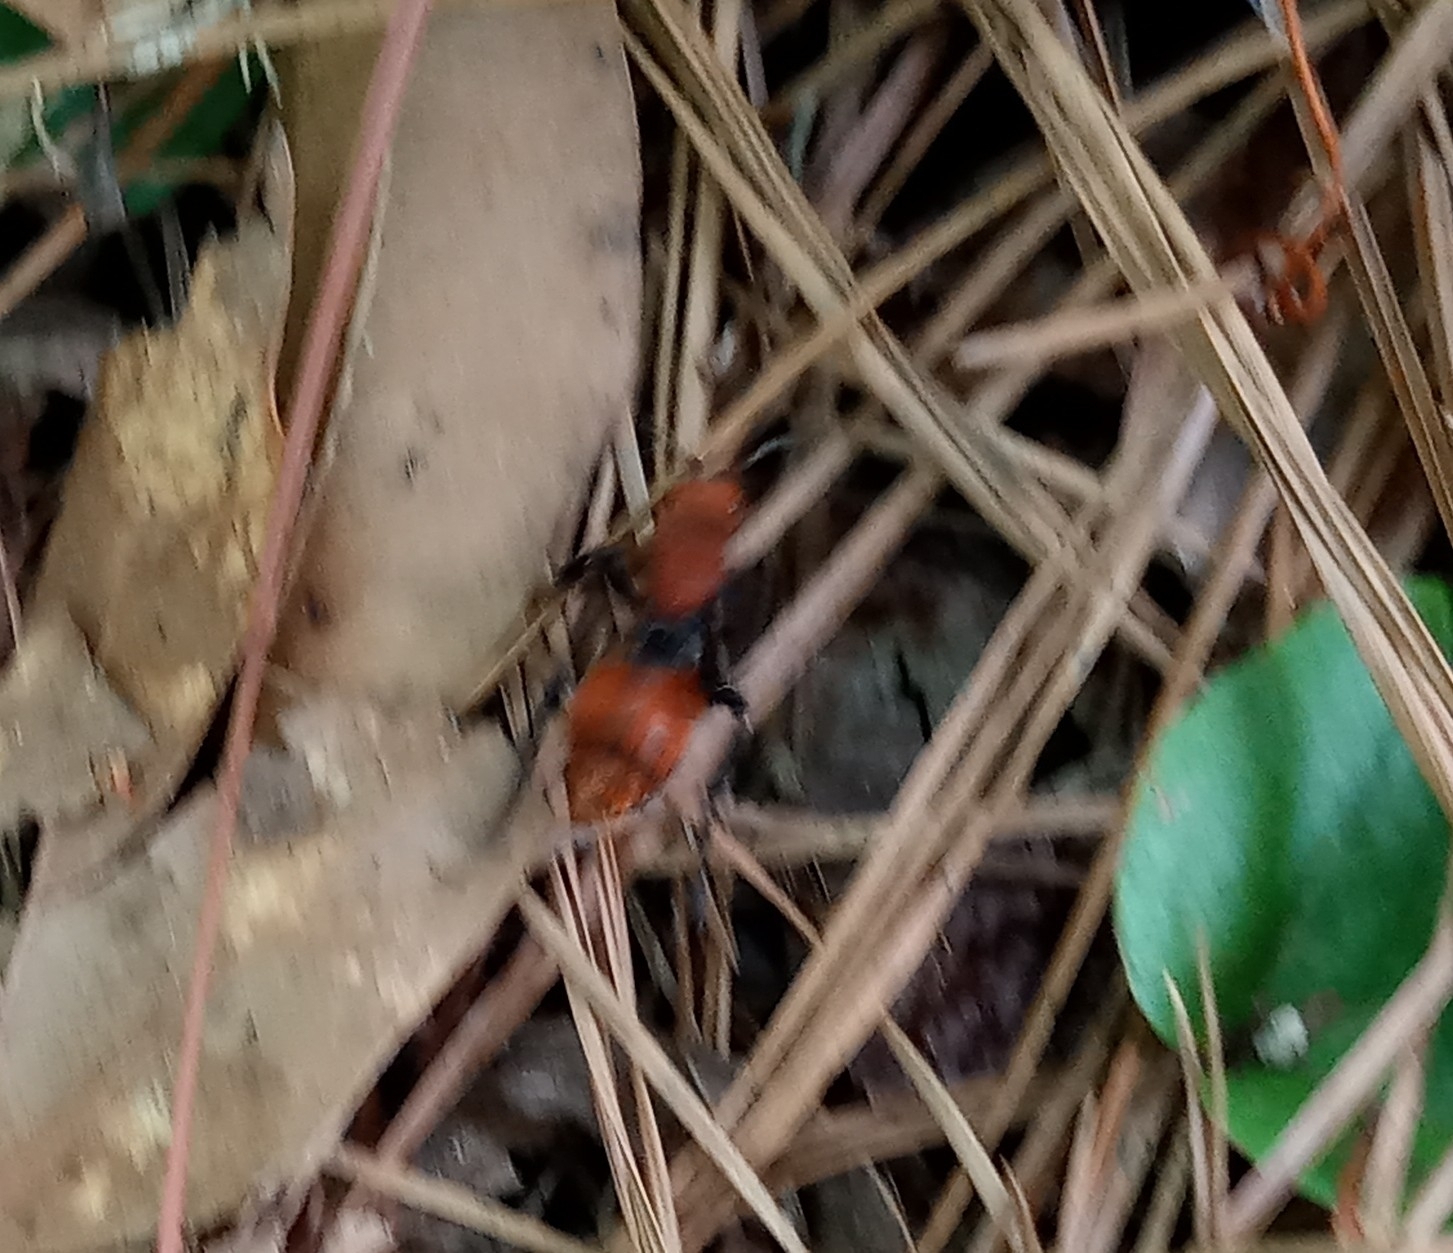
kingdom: Animalia
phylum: Arthropoda
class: Insecta
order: Hymenoptera
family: Mutillidae
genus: Dasymutilla
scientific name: Dasymutilla occidentalis
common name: Common eastern velvet ant
